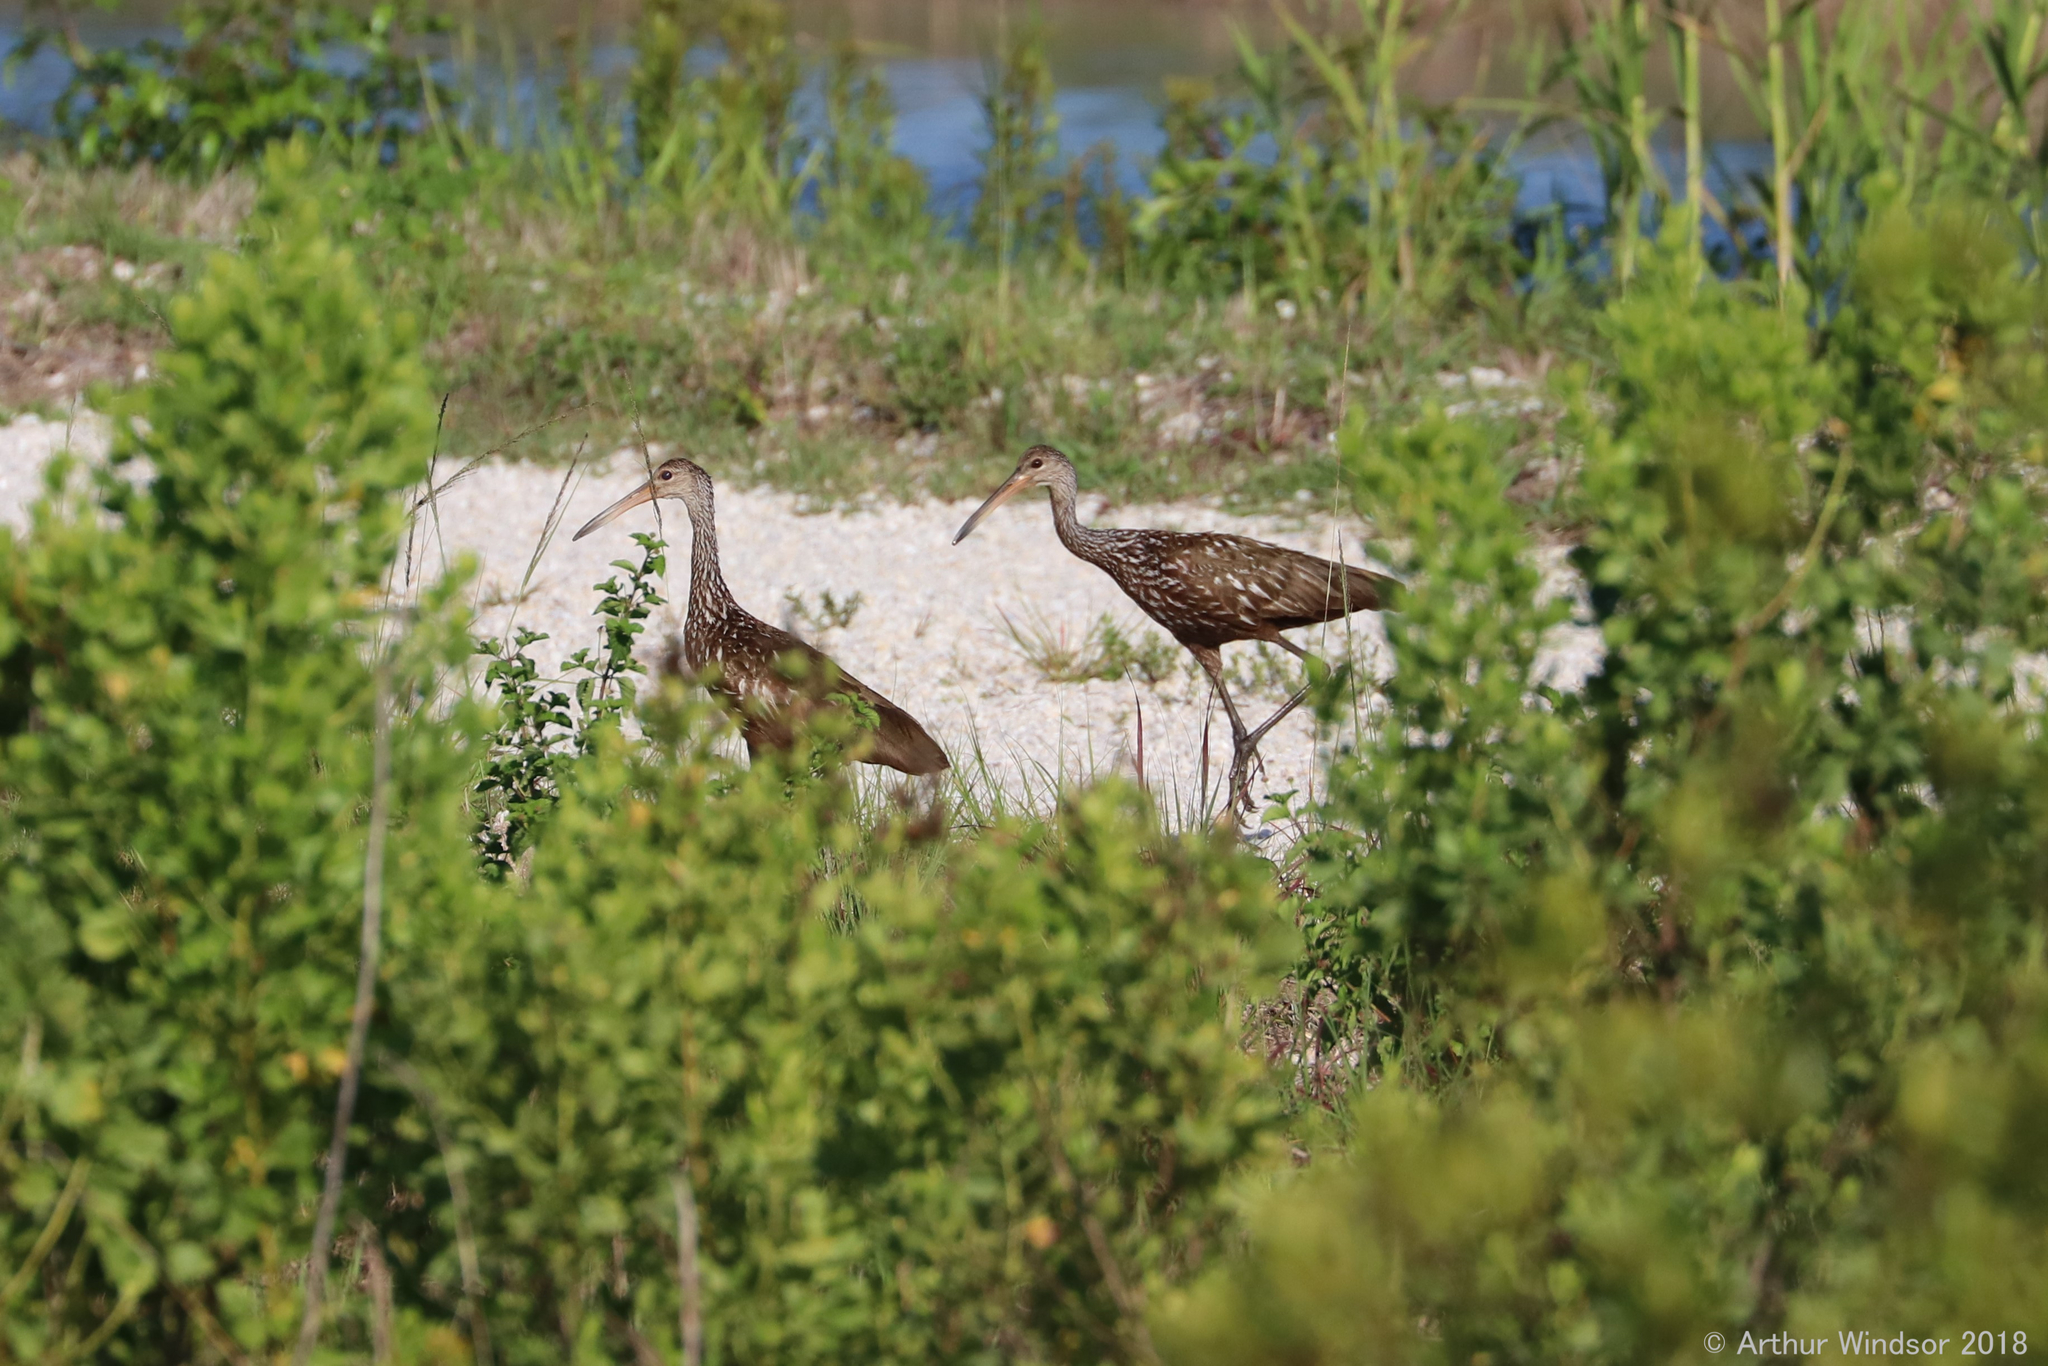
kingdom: Animalia
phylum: Chordata
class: Aves
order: Gruiformes
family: Aramidae
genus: Aramus
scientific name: Aramus guarauna
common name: Limpkin
